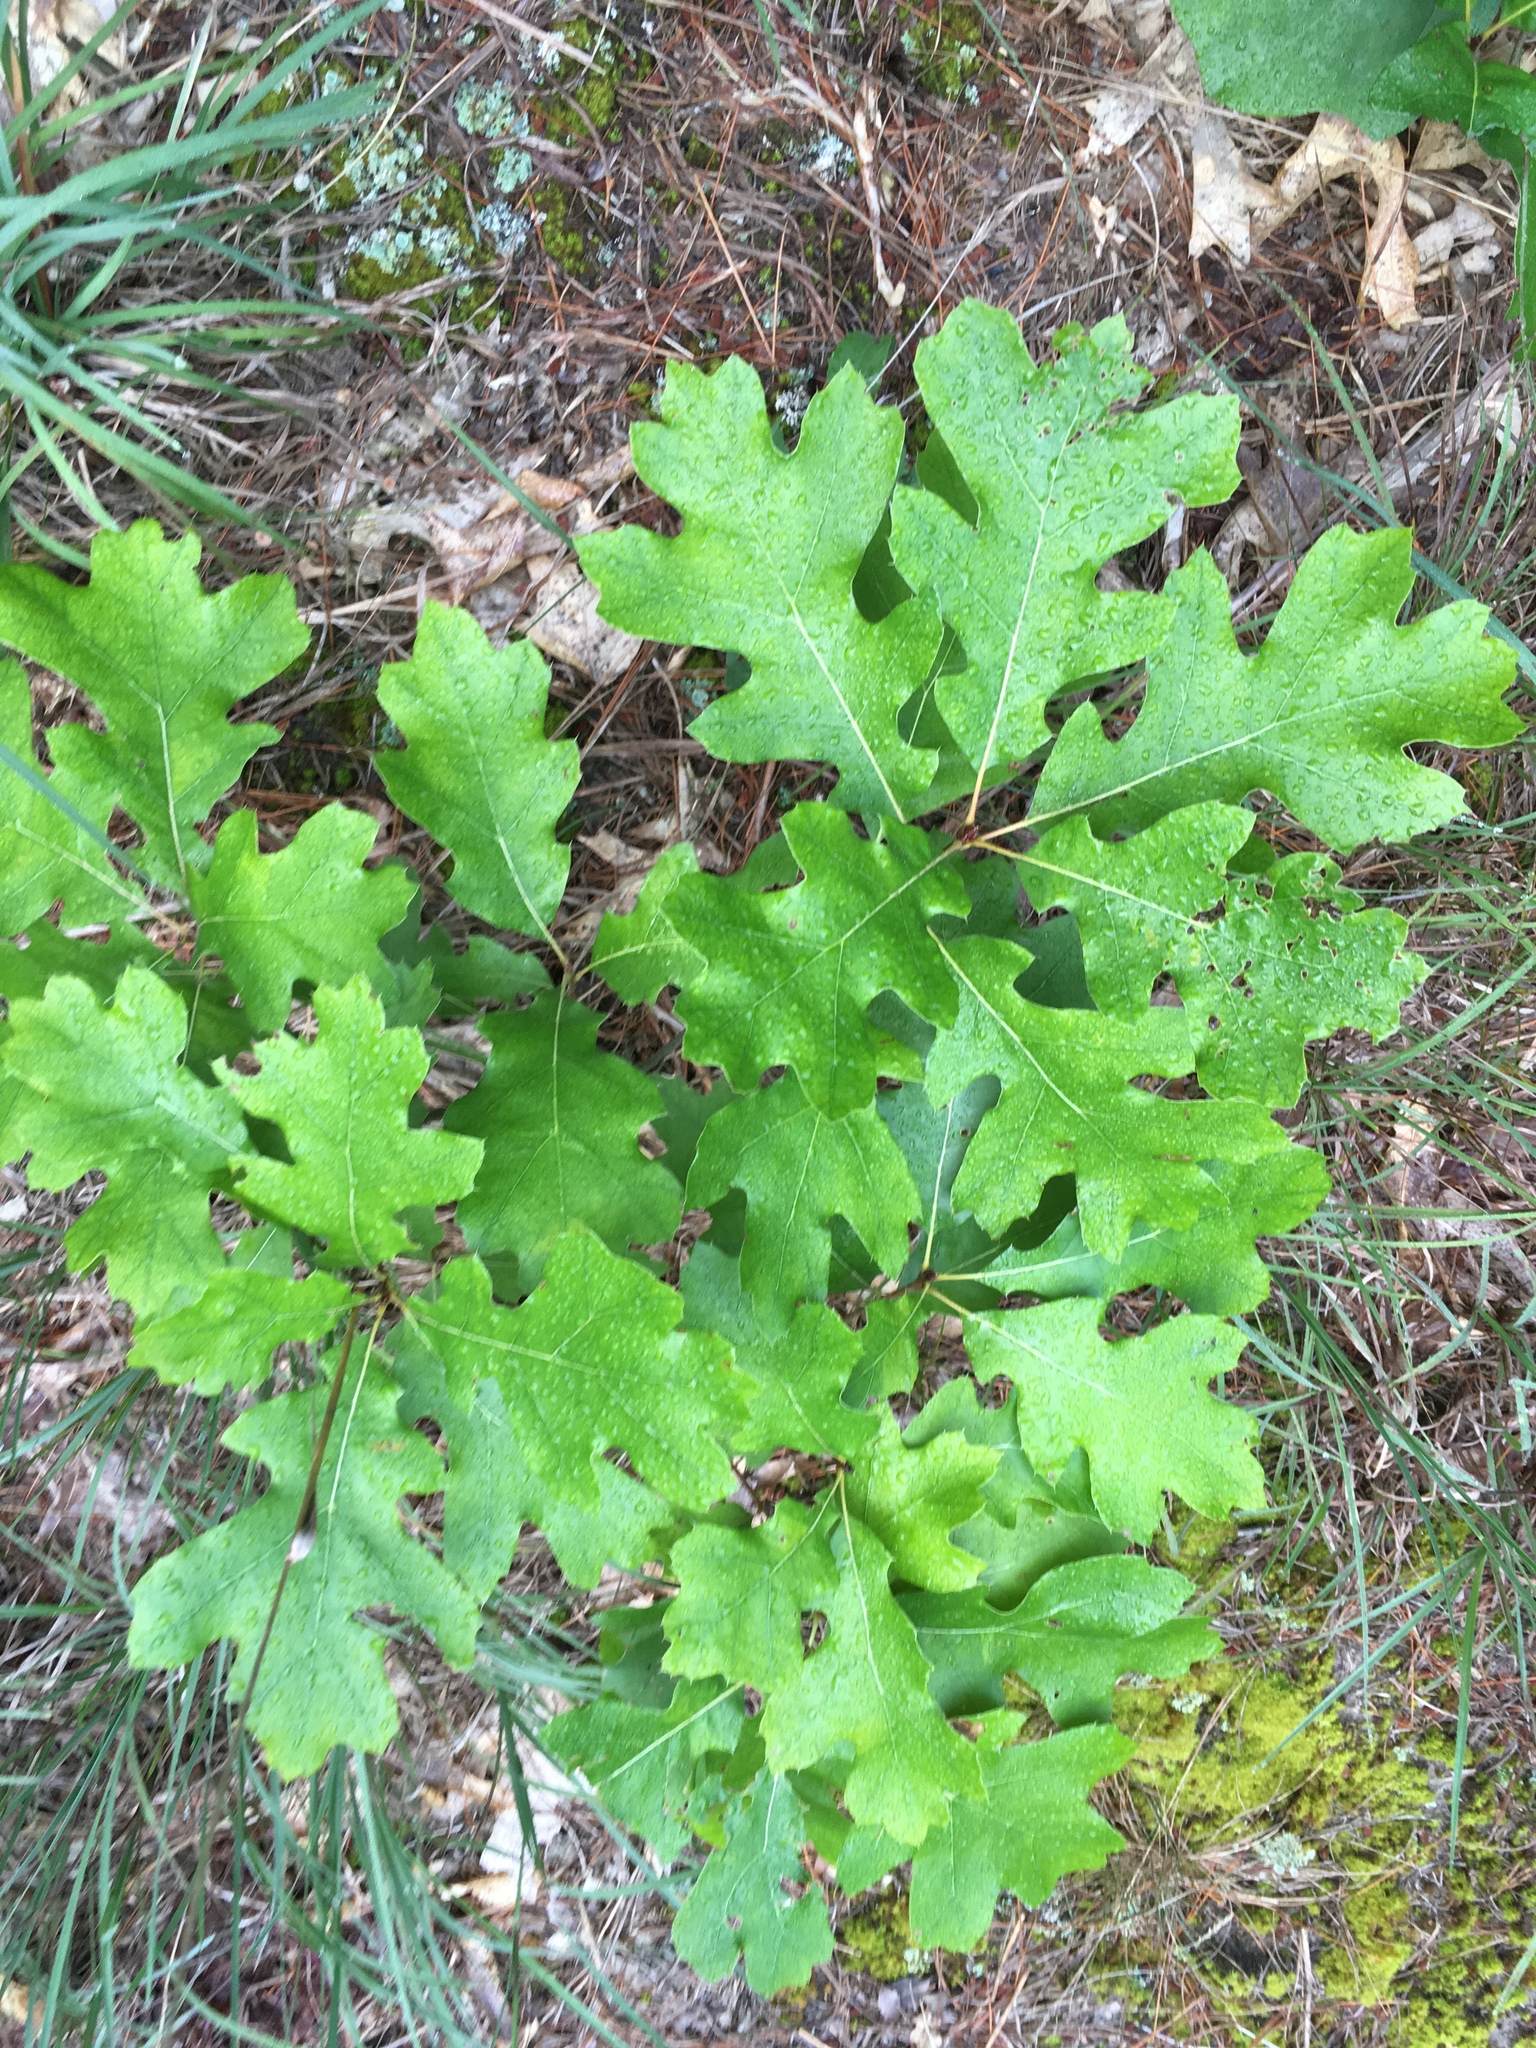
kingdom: Plantae
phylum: Tracheophyta
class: Magnoliopsida
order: Fagales
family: Fagaceae
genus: Quercus
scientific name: Quercus velutina
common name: Black oak
